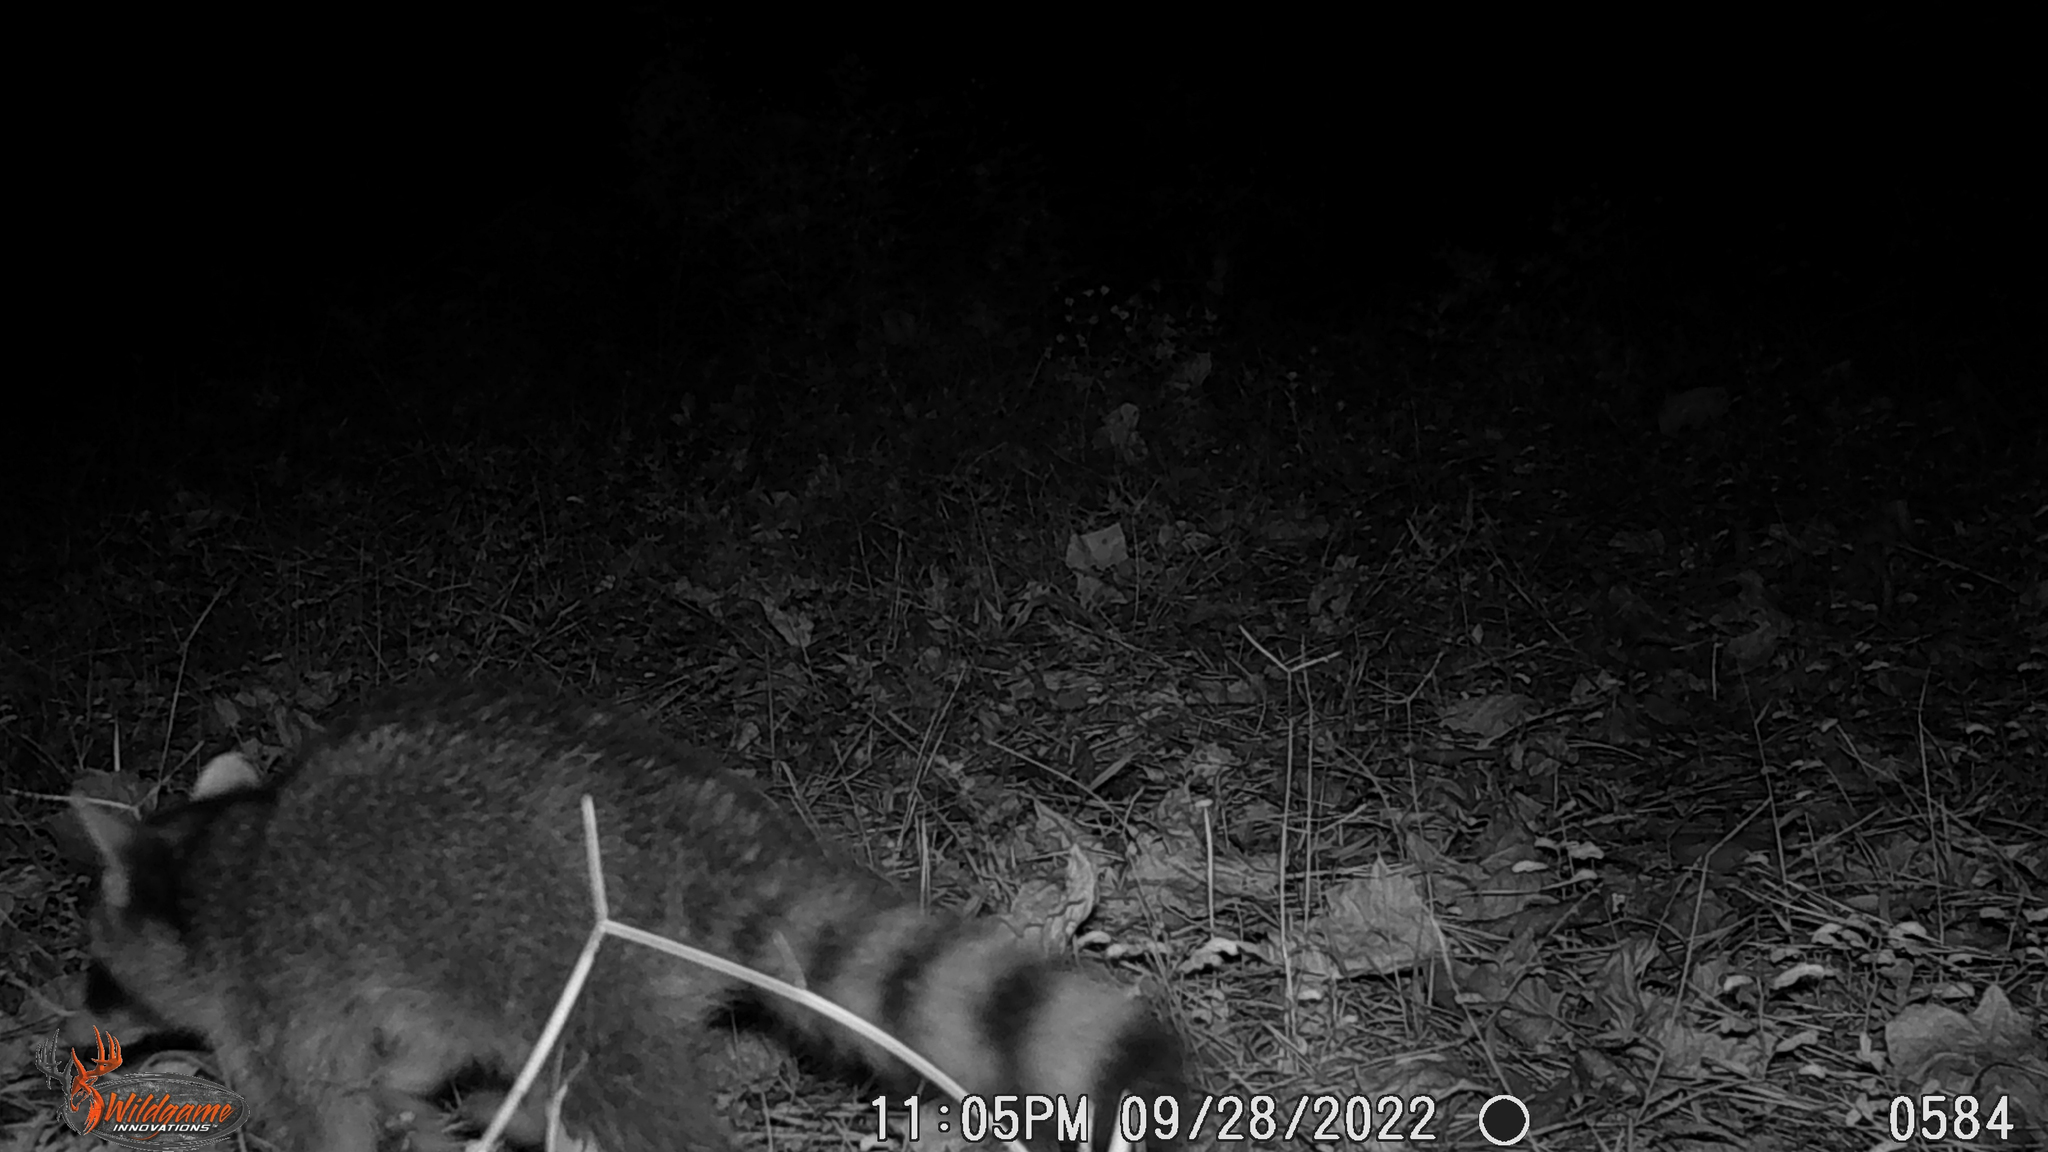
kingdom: Animalia
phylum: Chordata
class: Mammalia
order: Carnivora
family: Procyonidae
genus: Procyon
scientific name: Procyon lotor
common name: Raccoon
